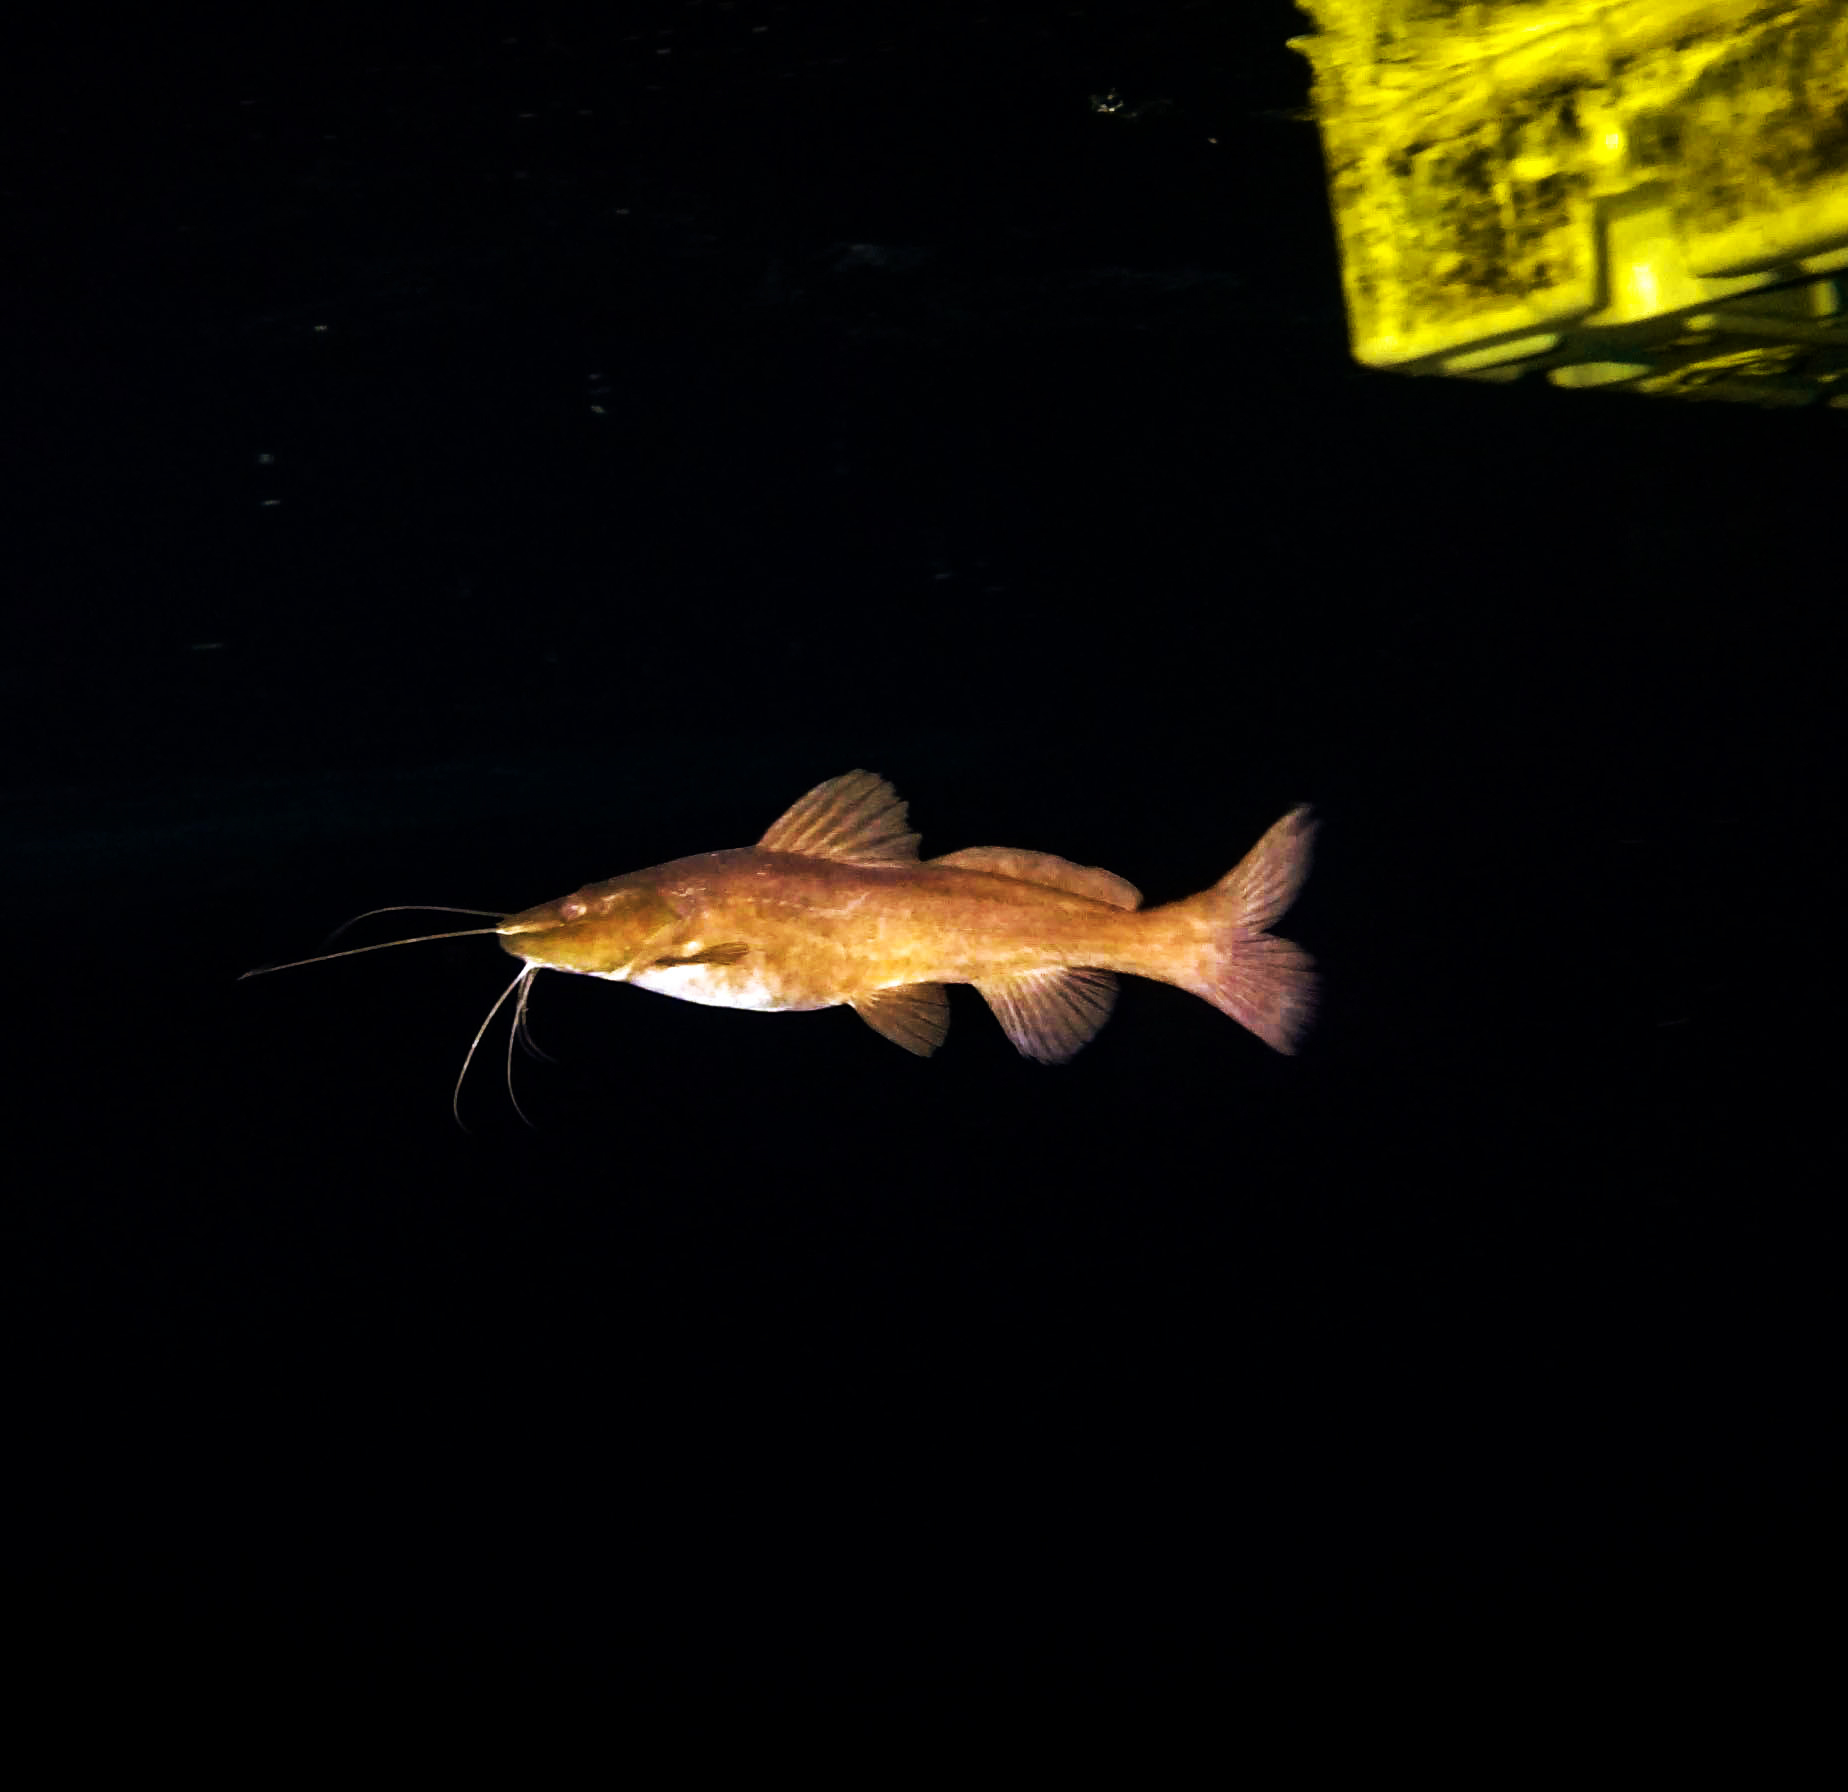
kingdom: Animalia
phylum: Chordata
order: Siluriformes
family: Heptapteridae
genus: Rhamdia
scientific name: Rhamdia guatemalensis
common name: Pale catfish
